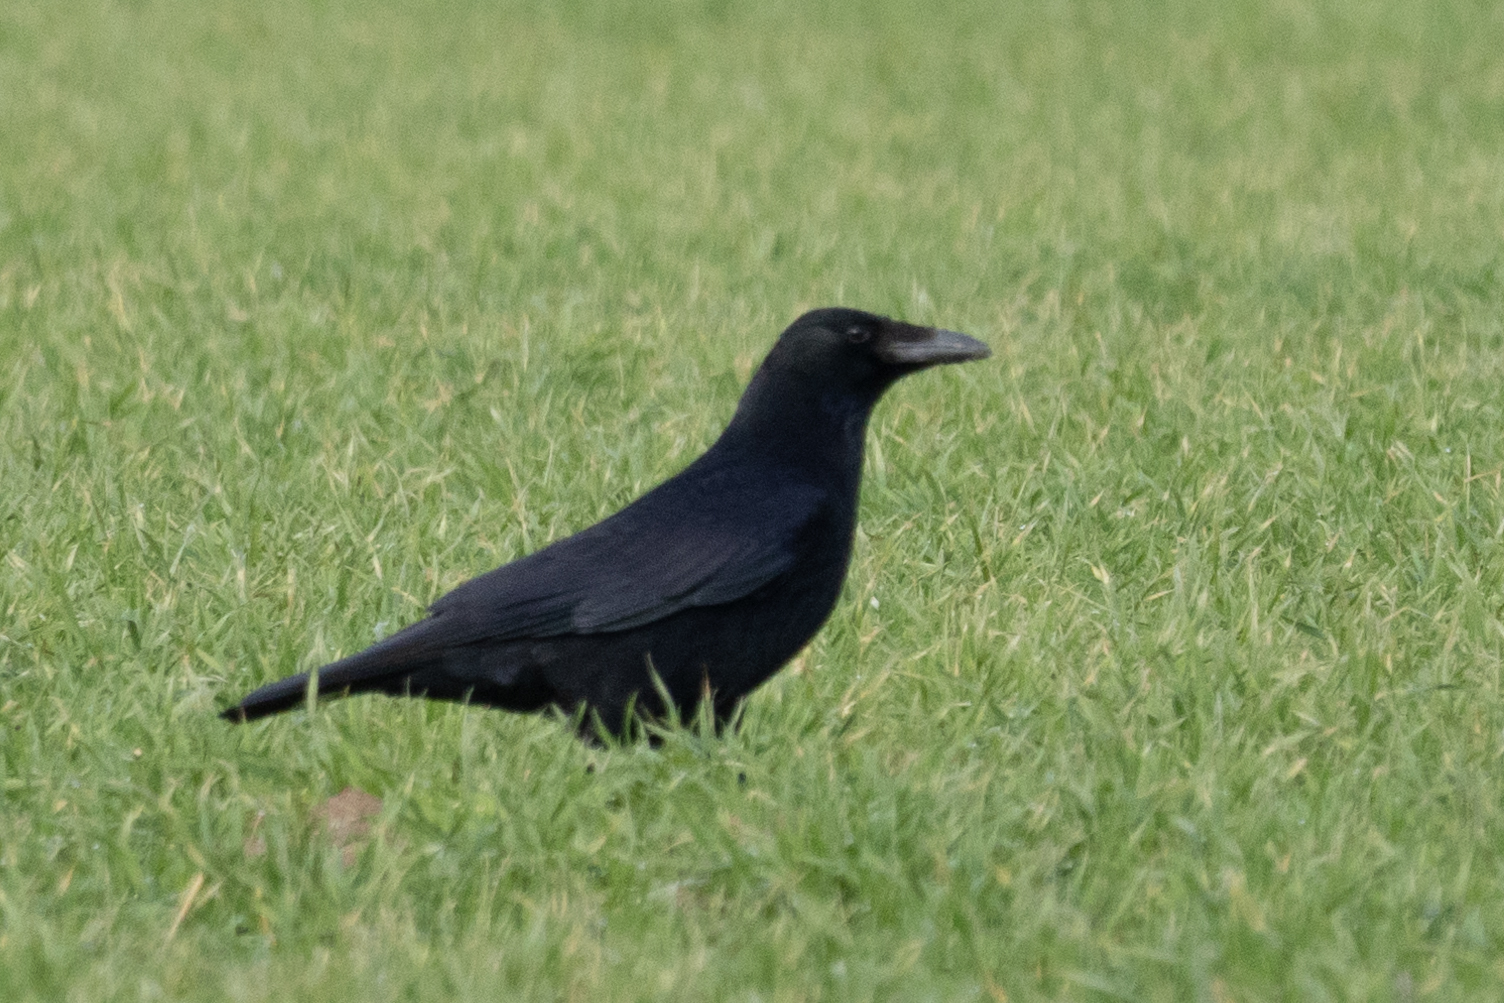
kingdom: Animalia
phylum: Chordata
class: Aves
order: Passeriformes
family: Corvidae
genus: Corvus
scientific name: Corvus corone
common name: Carrion crow
